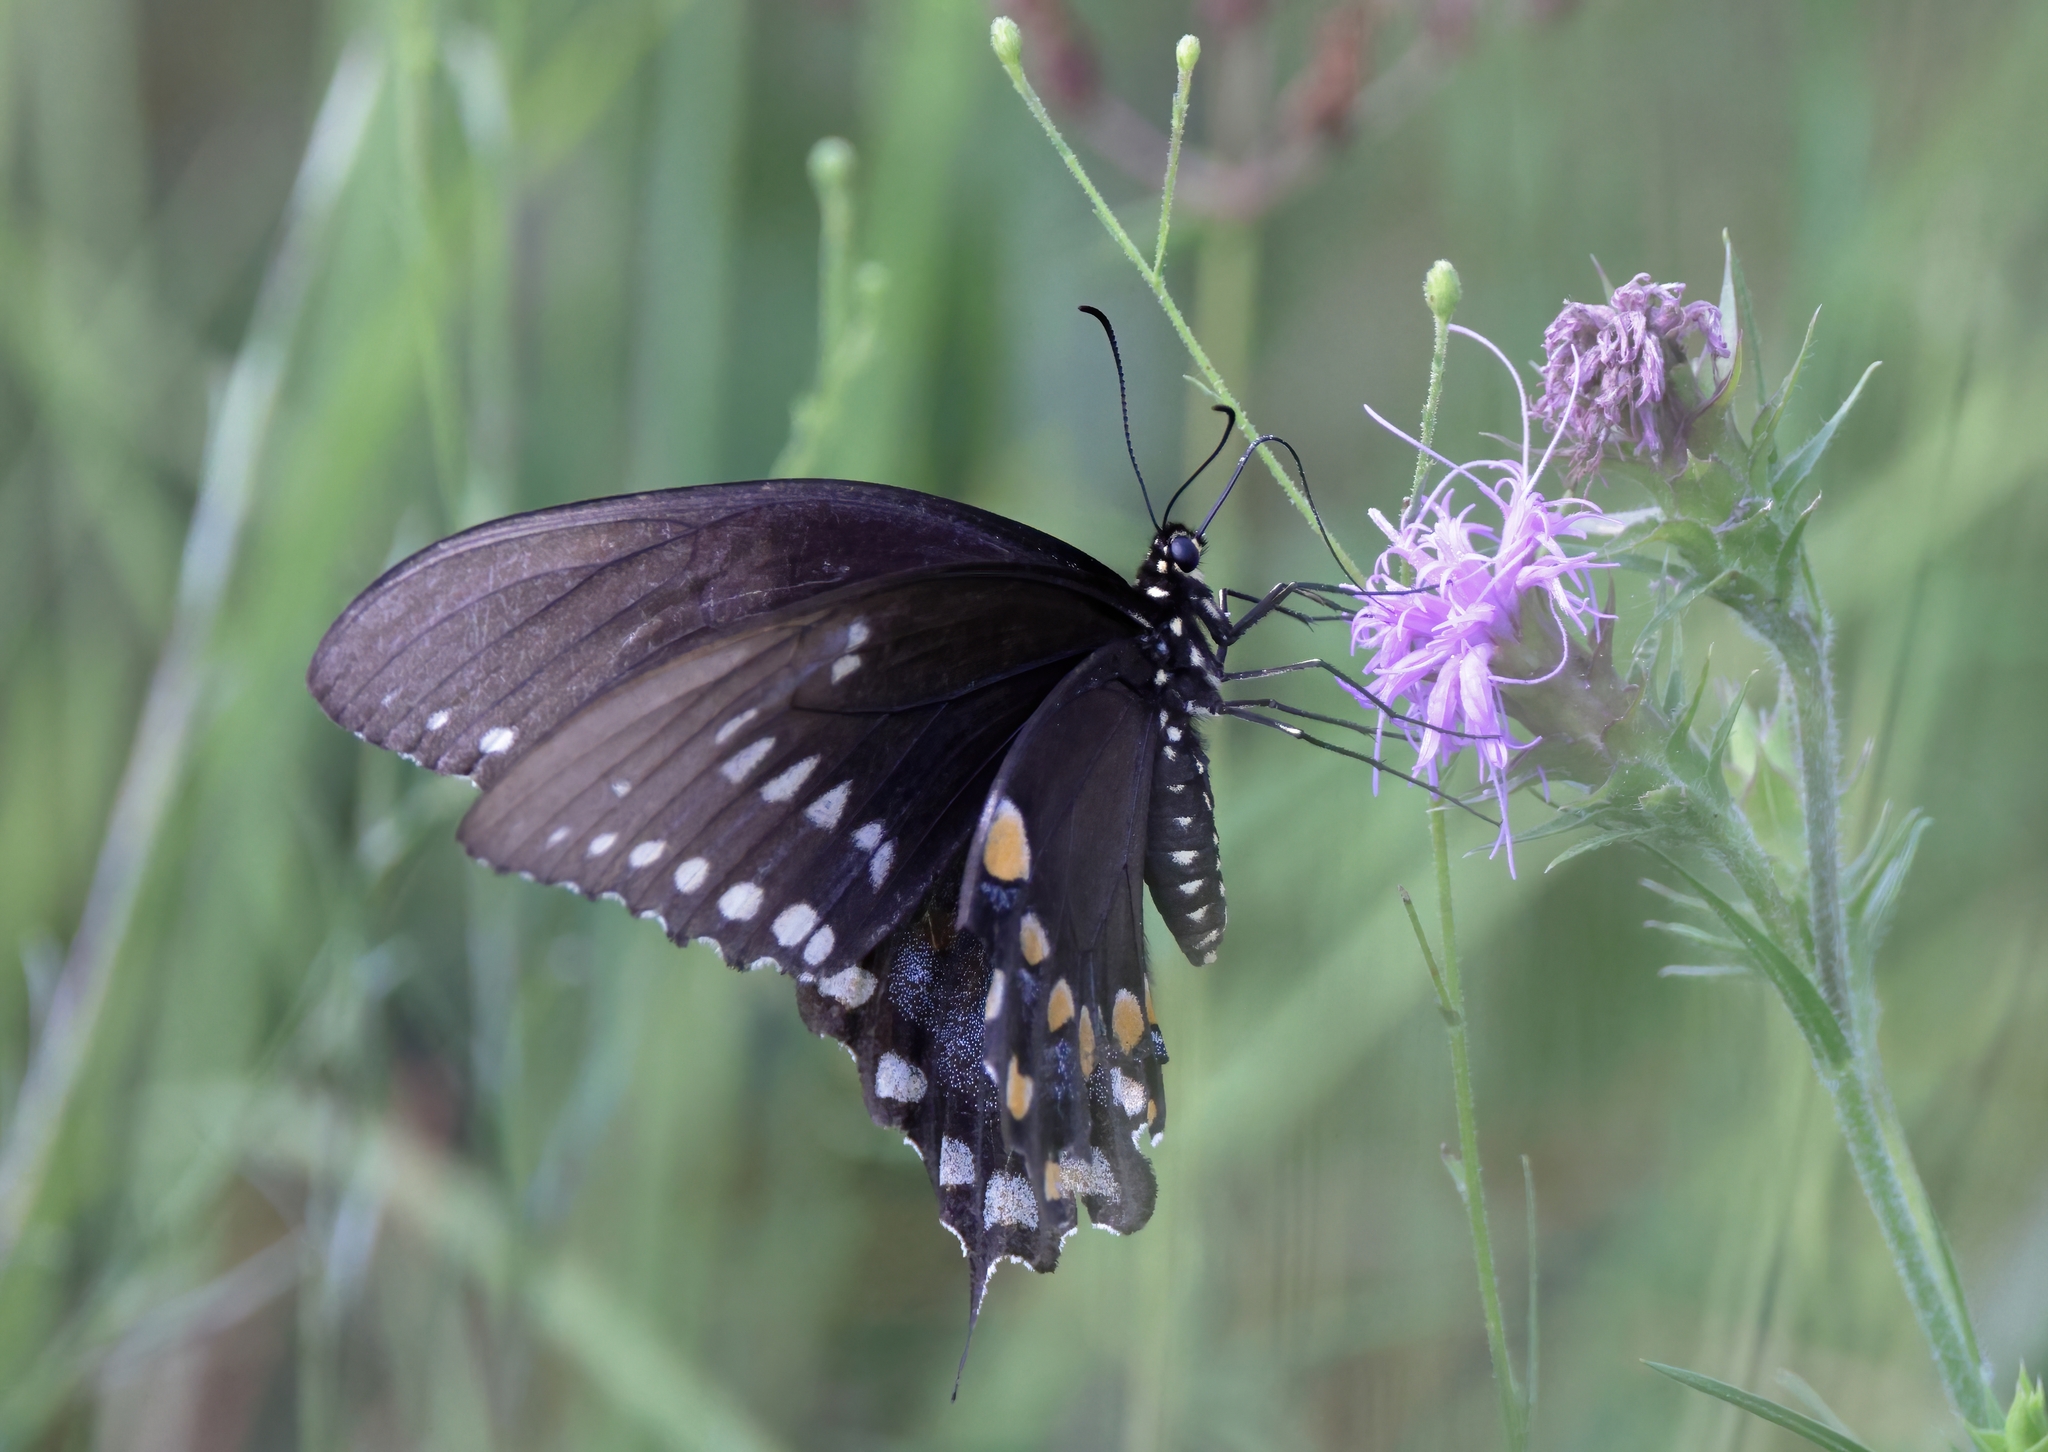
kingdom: Animalia
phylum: Arthropoda
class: Insecta
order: Lepidoptera
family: Papilionidae
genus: Papilio
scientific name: Papilio troilus
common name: Spicebush swallowtail
